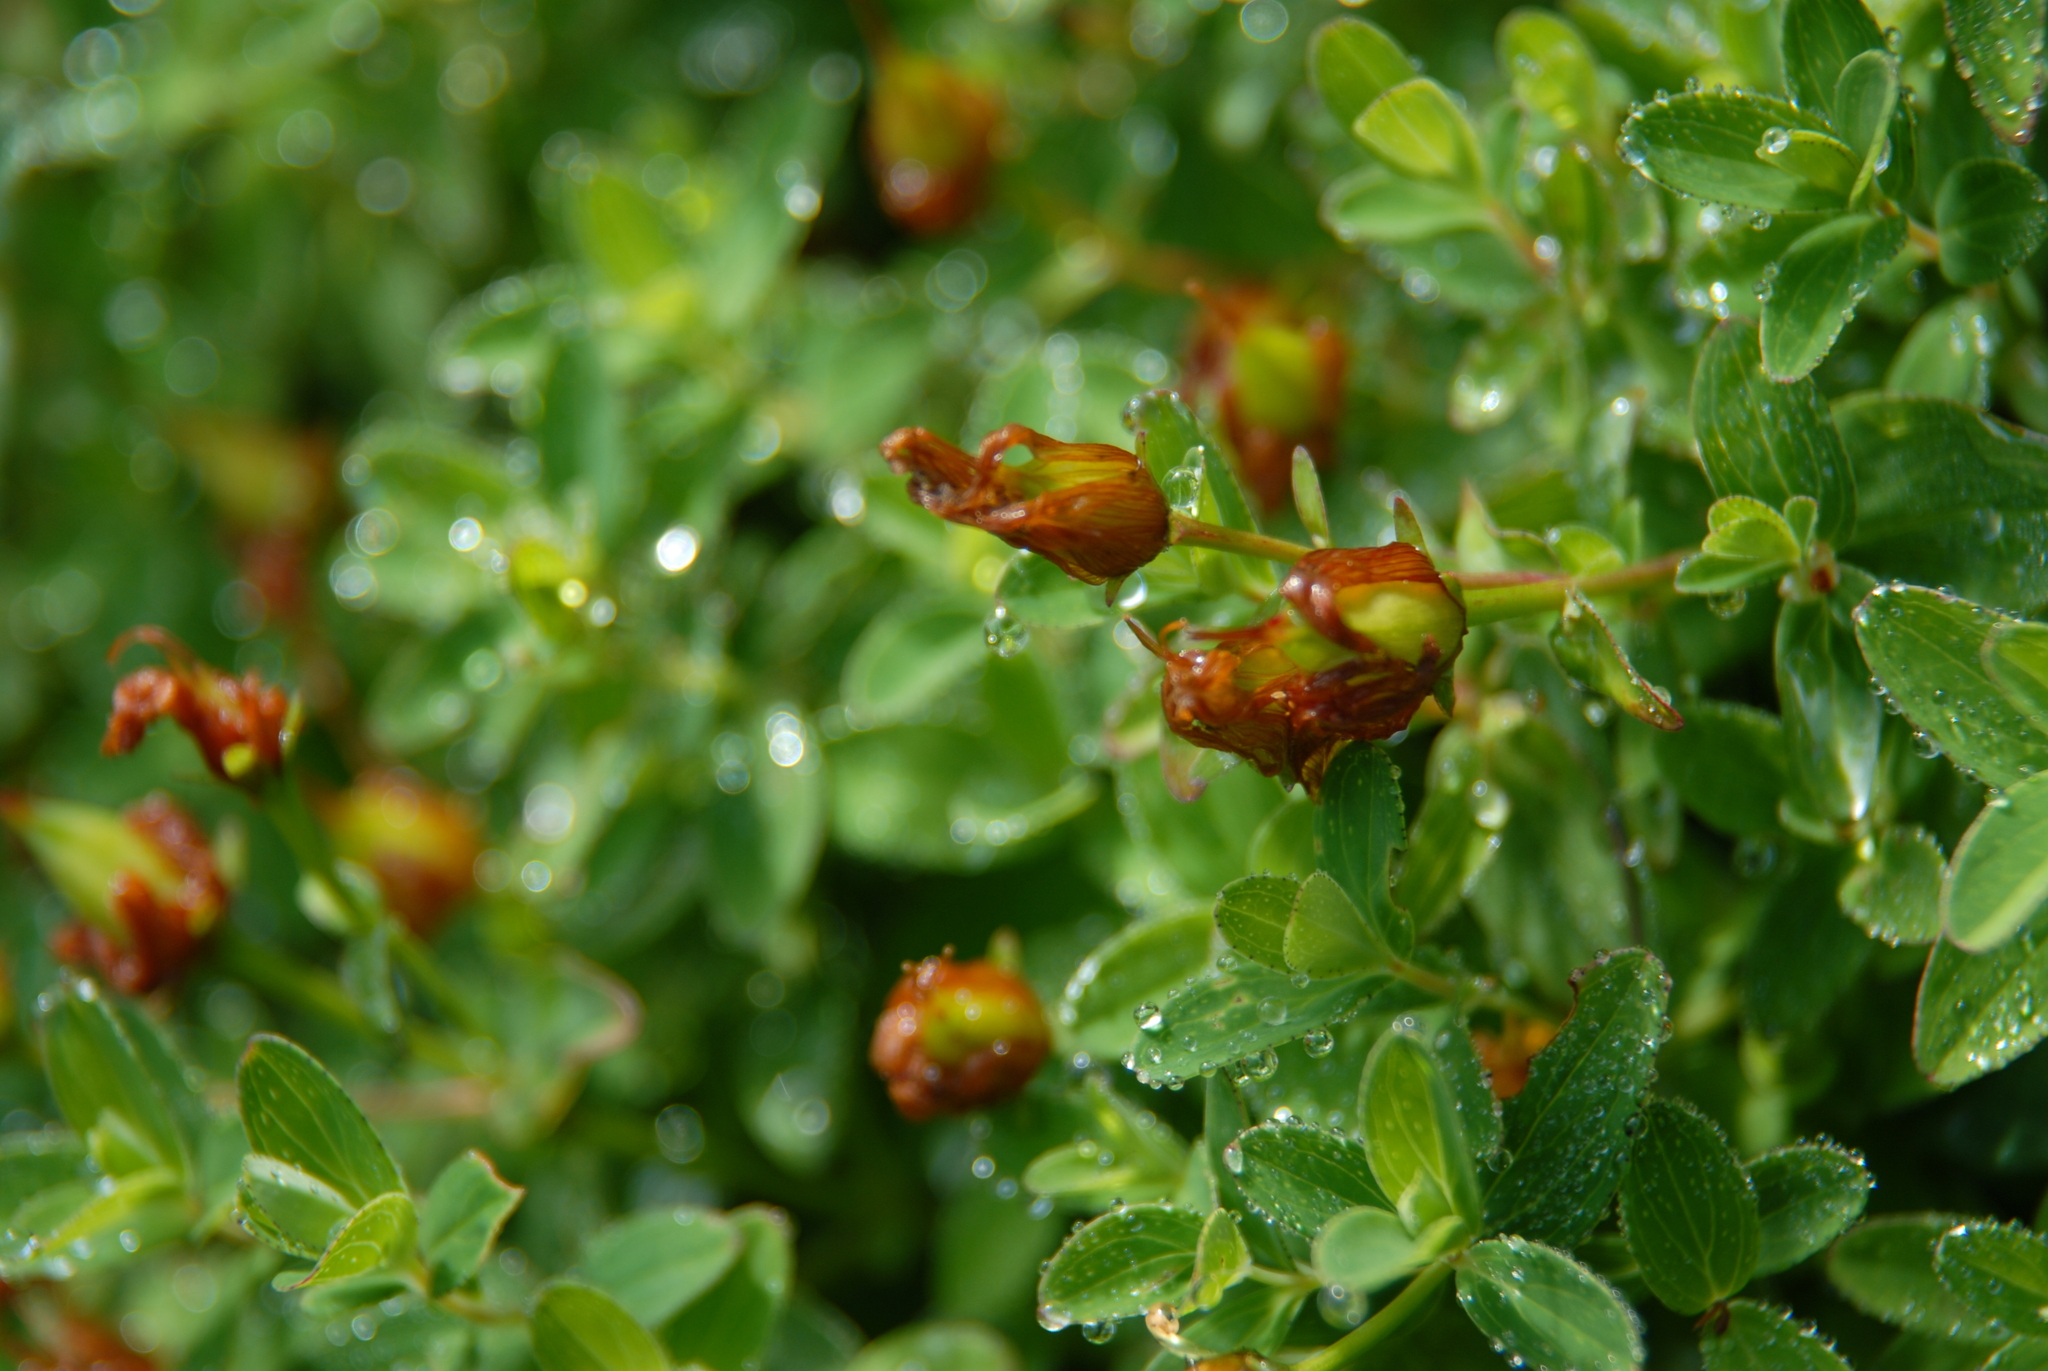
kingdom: Plantae
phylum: Tracheophyta
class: Magnoliopsida
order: Malpighiales
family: Hypericaceae
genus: Hypericum
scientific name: Hypericum nagasawae
